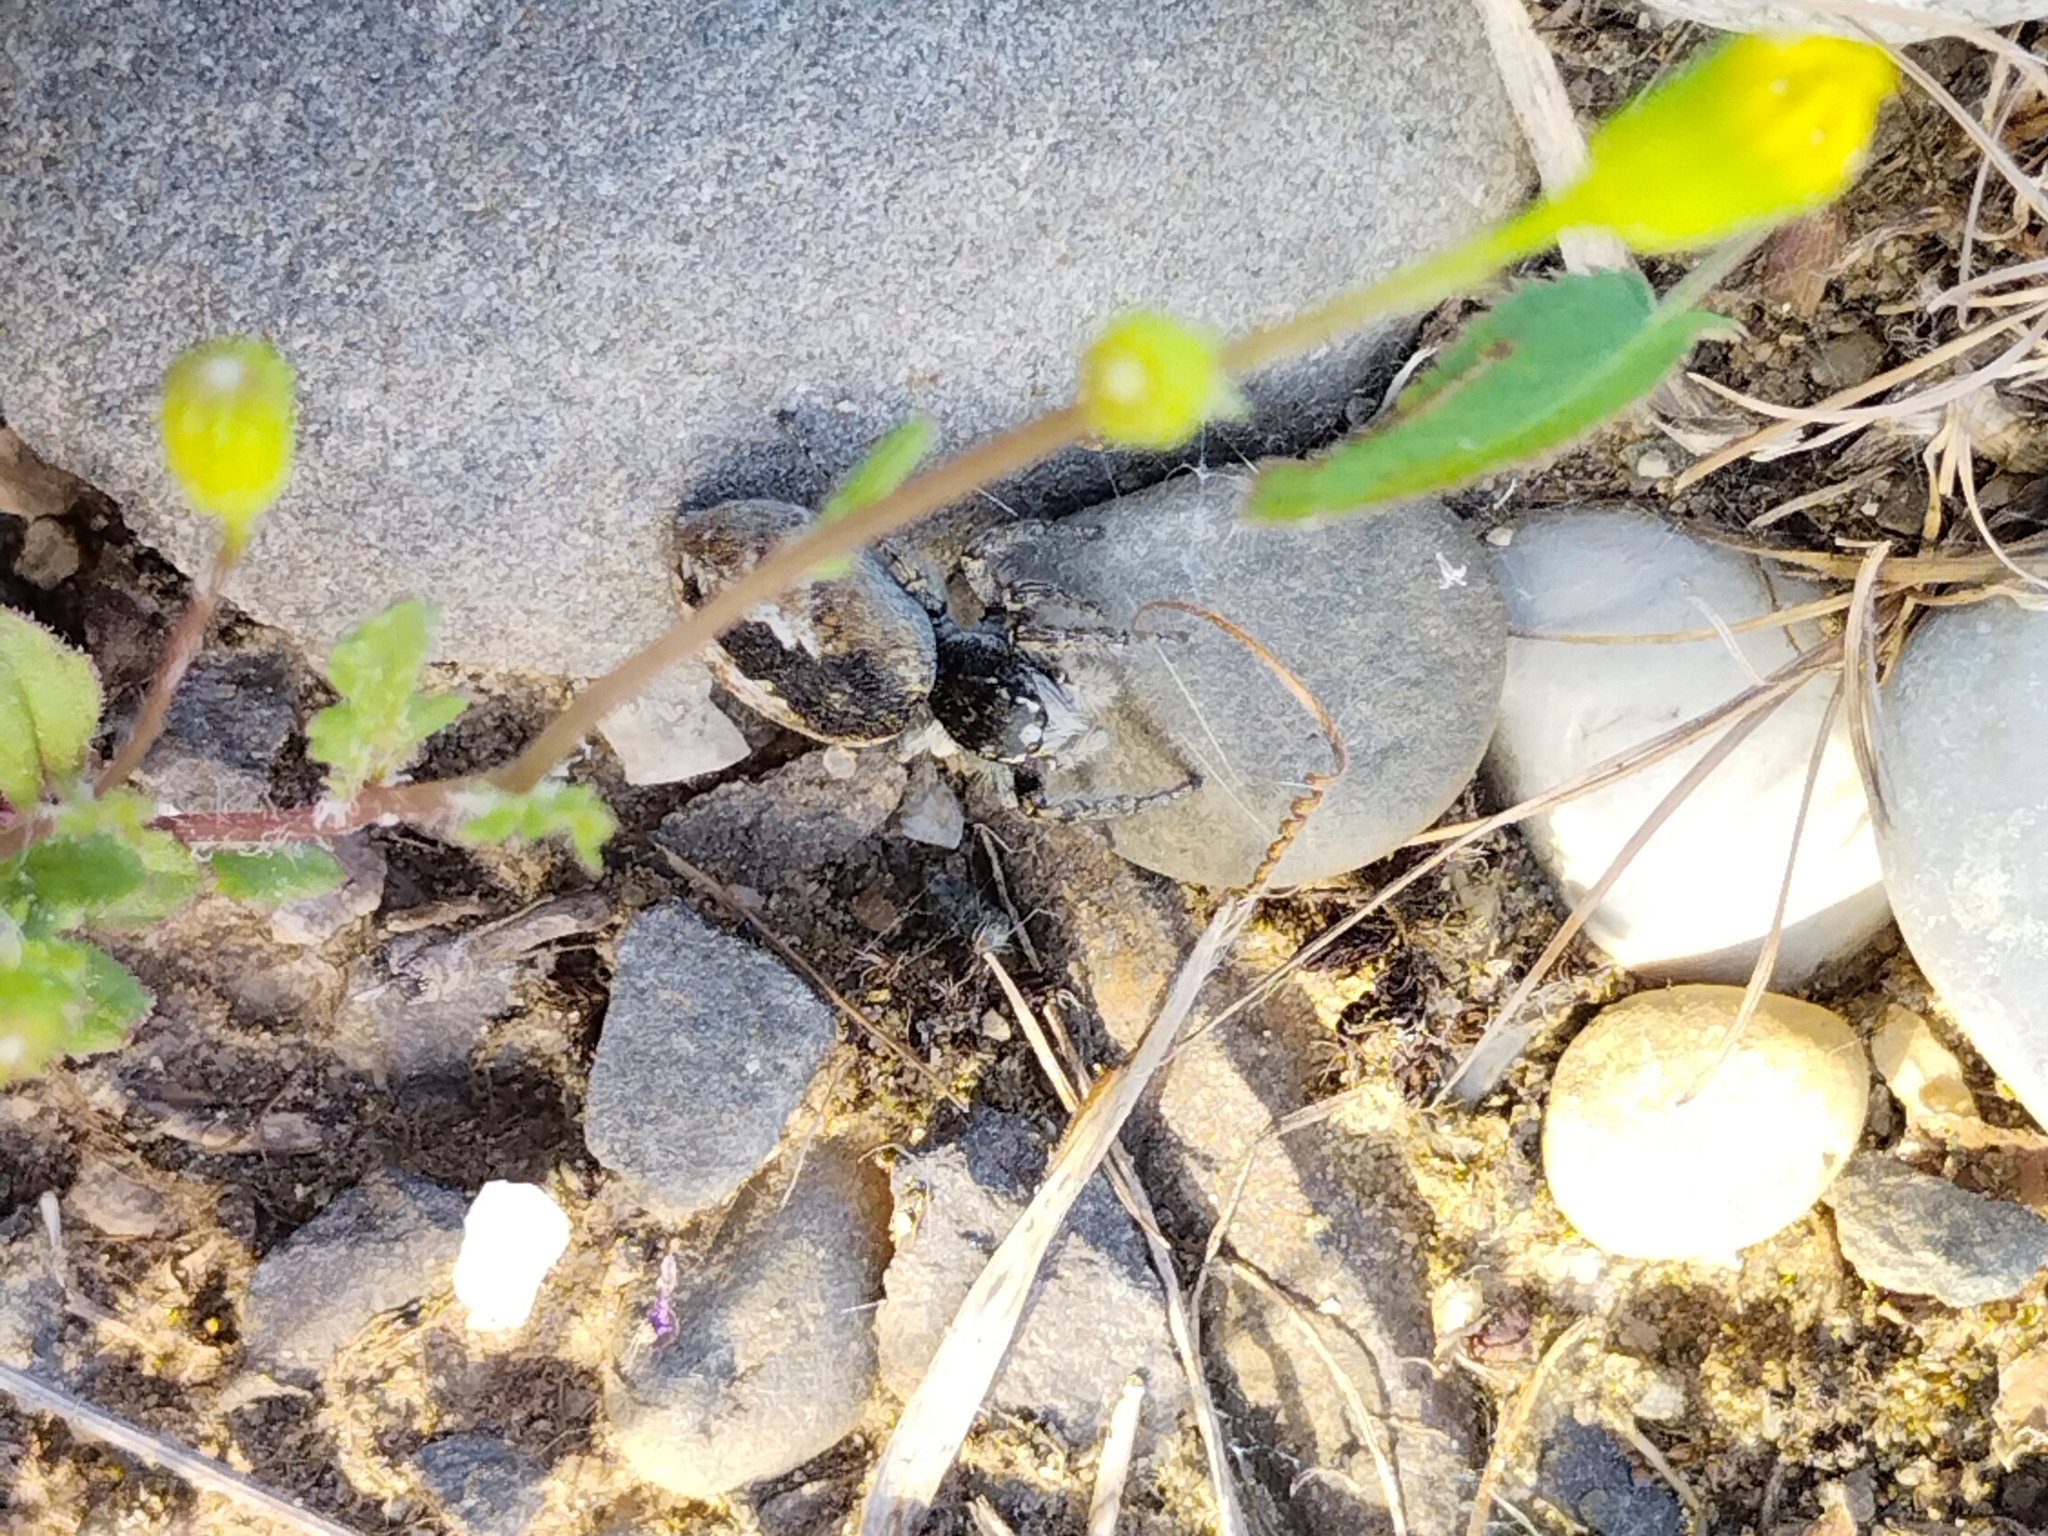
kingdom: Animalia
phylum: Arthropoda
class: Arachnida
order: Araneae
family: Salticidae
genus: Philaeus
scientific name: Philaeus chrysops
